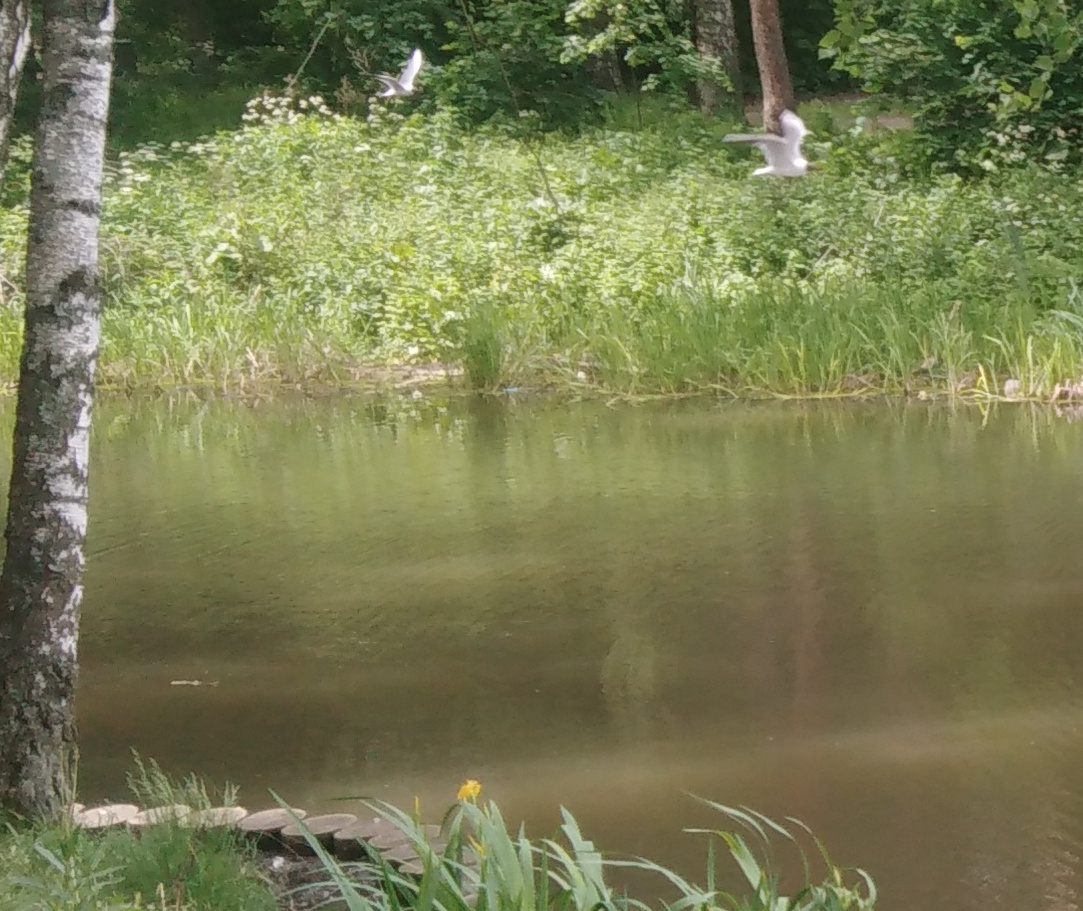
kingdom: Animalia
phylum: Chordata
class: Aves
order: Charadriiformes
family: Laridae
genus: Chroicocephalus
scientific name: Chroicocephalus ridibundus
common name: Black-headed gull
